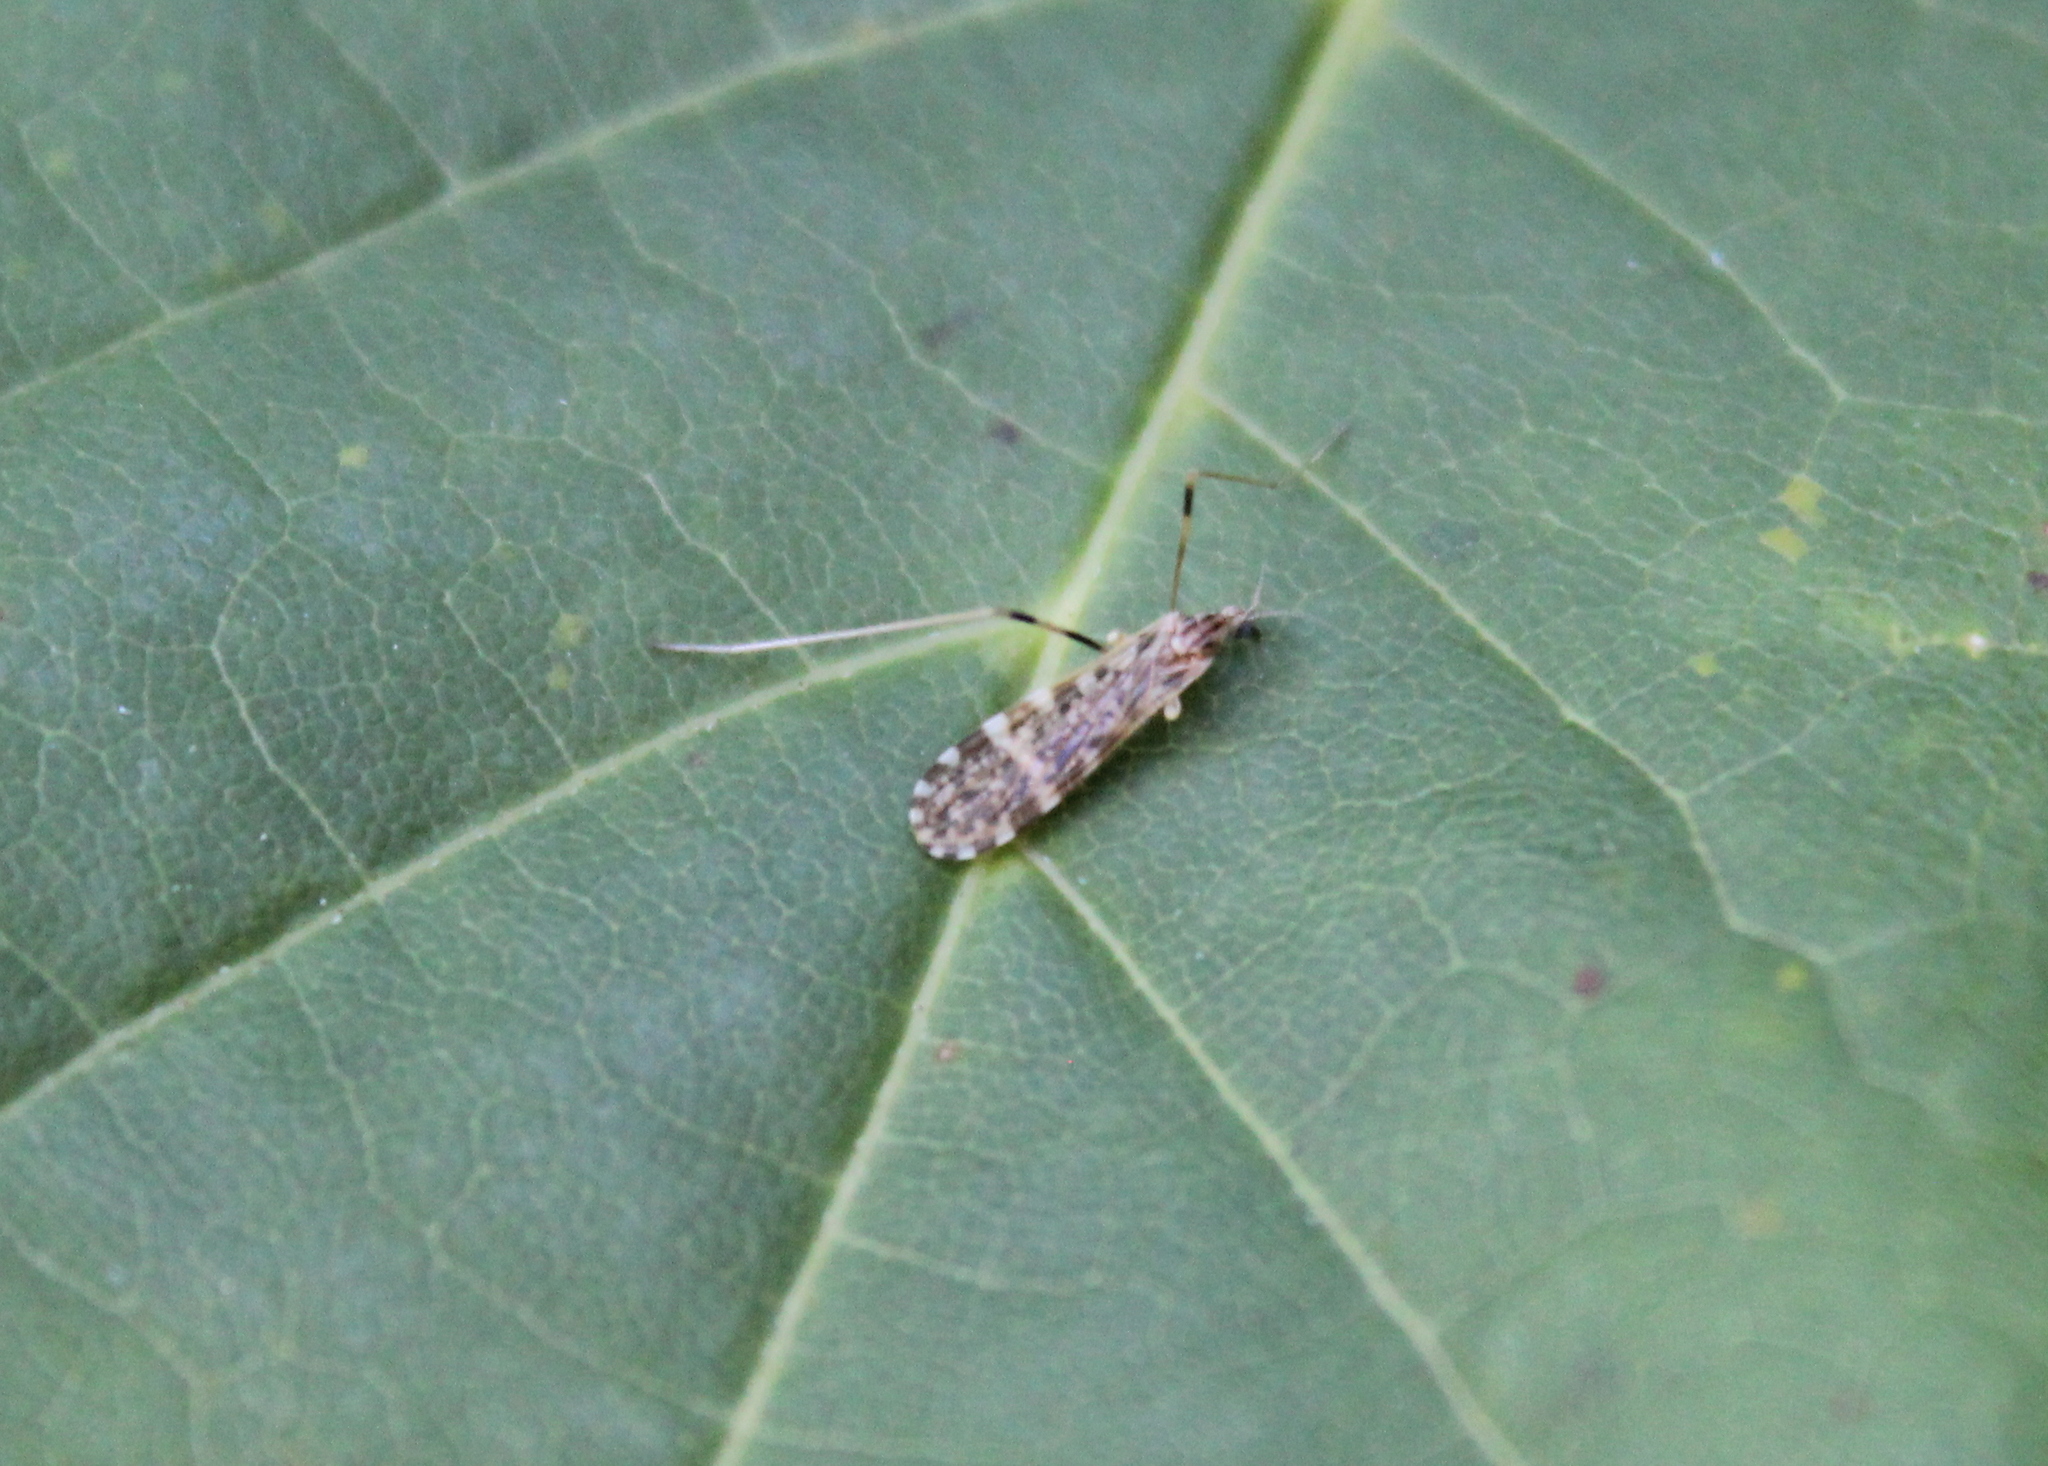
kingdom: Animalia
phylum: Arthropoda
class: Insecta
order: Diptera
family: Limoniidae
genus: Erioptera
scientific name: Erioptera caliptera
